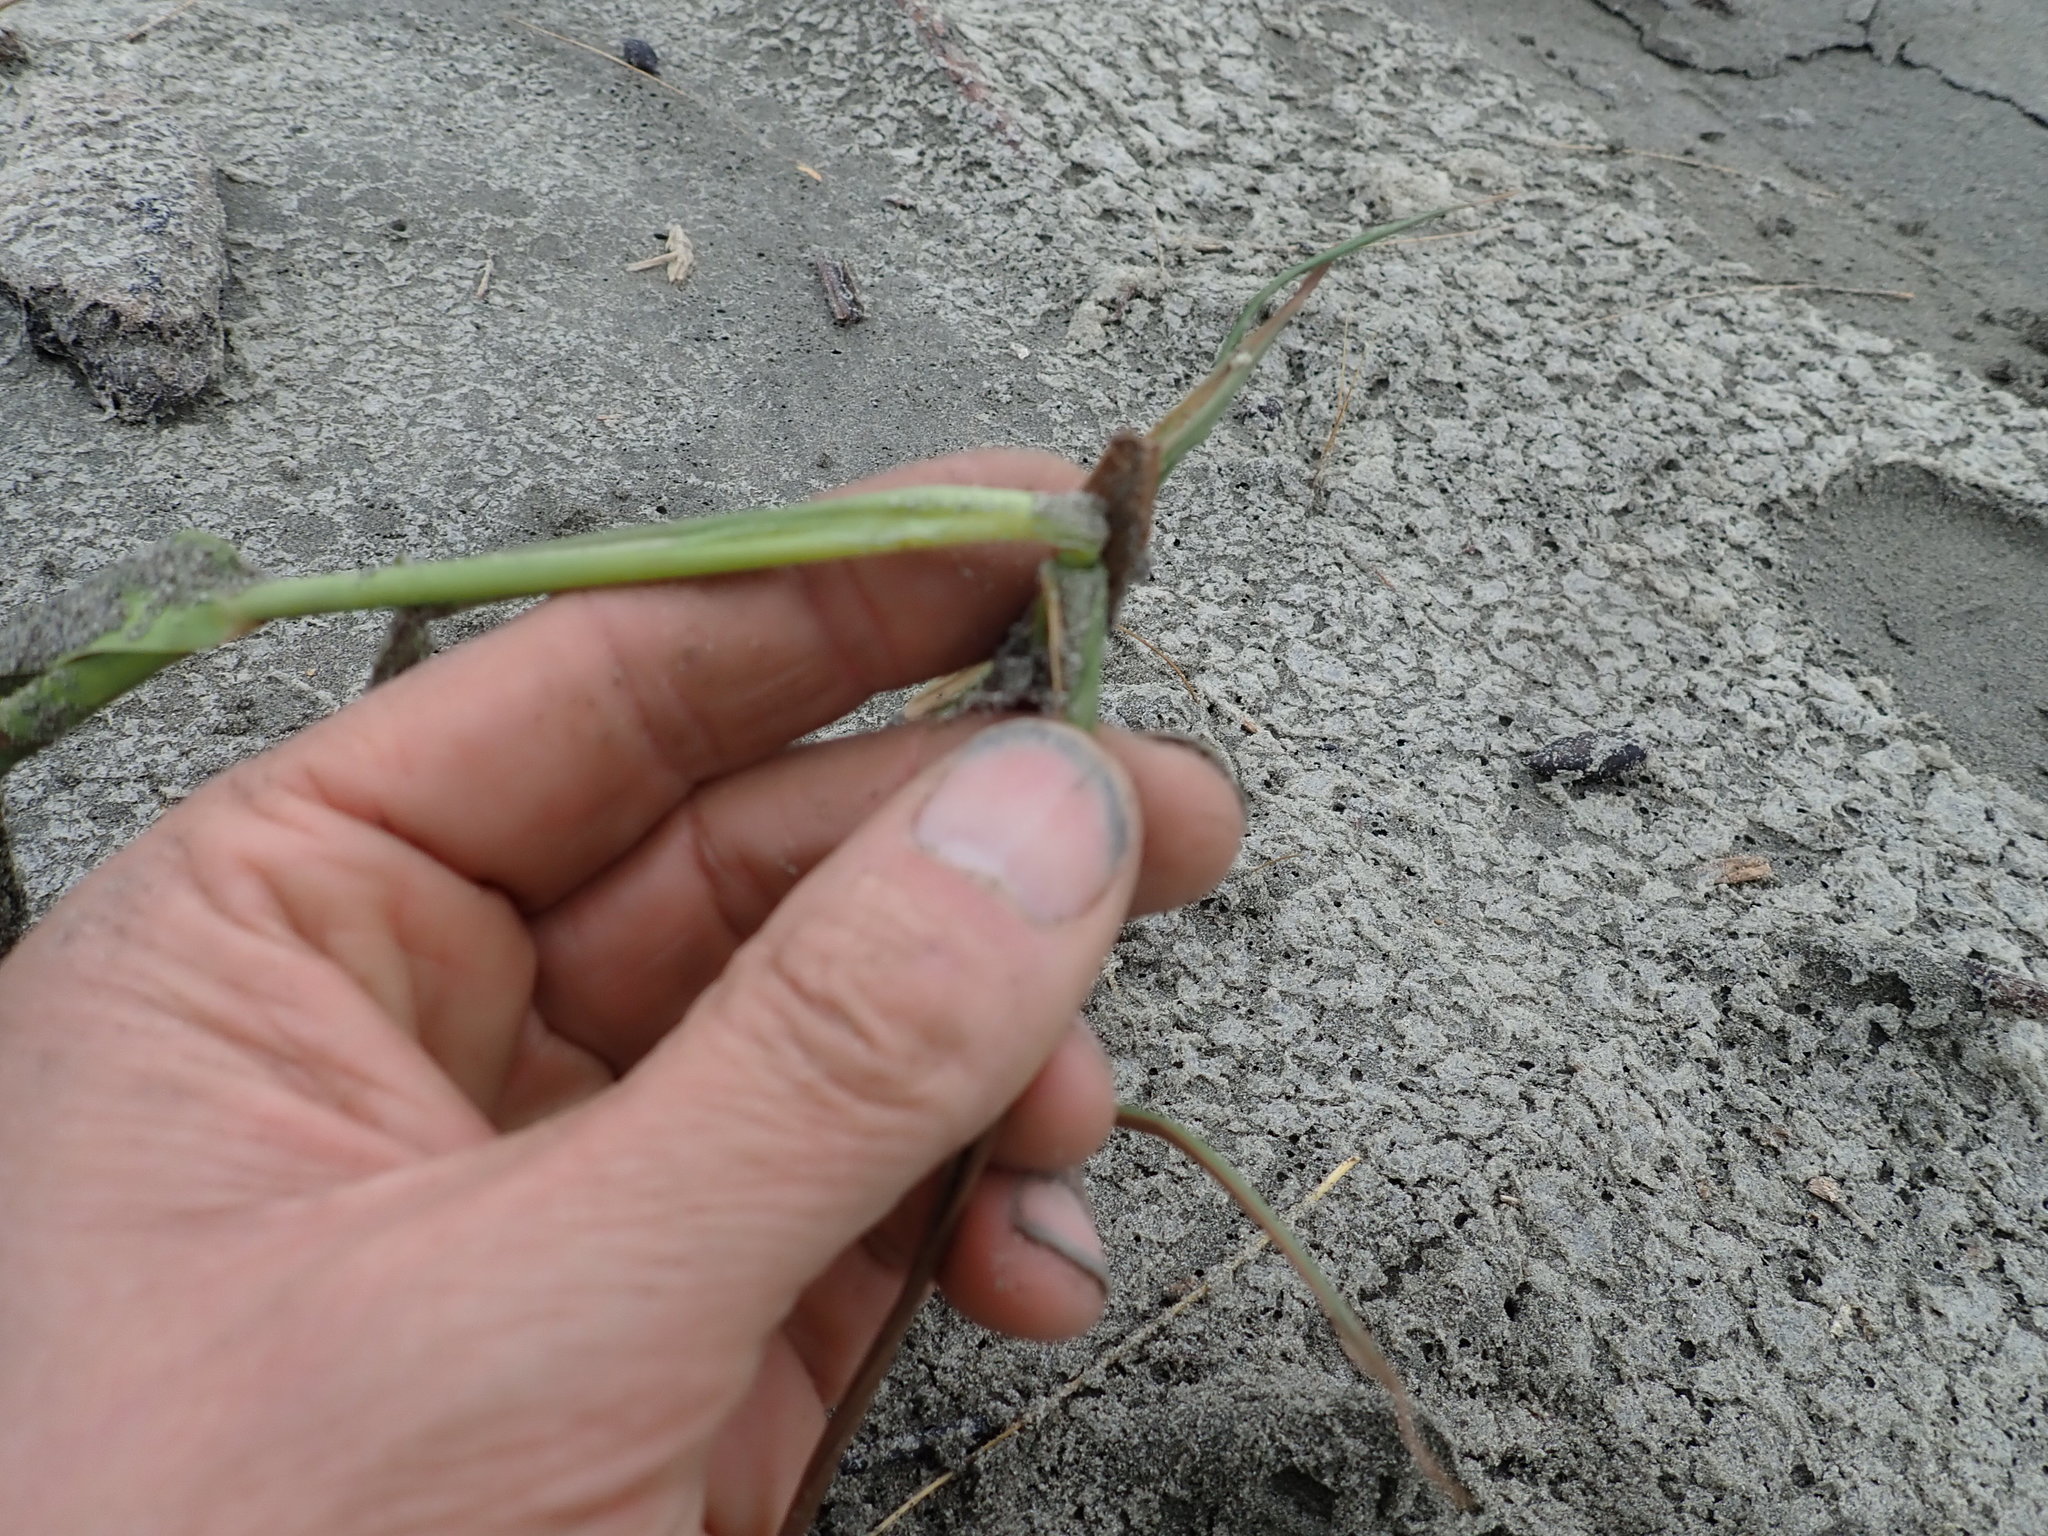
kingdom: Plantae
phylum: Tracheophyta
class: Liliopsida
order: Poales
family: Poaceae
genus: Phragmites
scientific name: Phragmites karka
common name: Tropical reed
